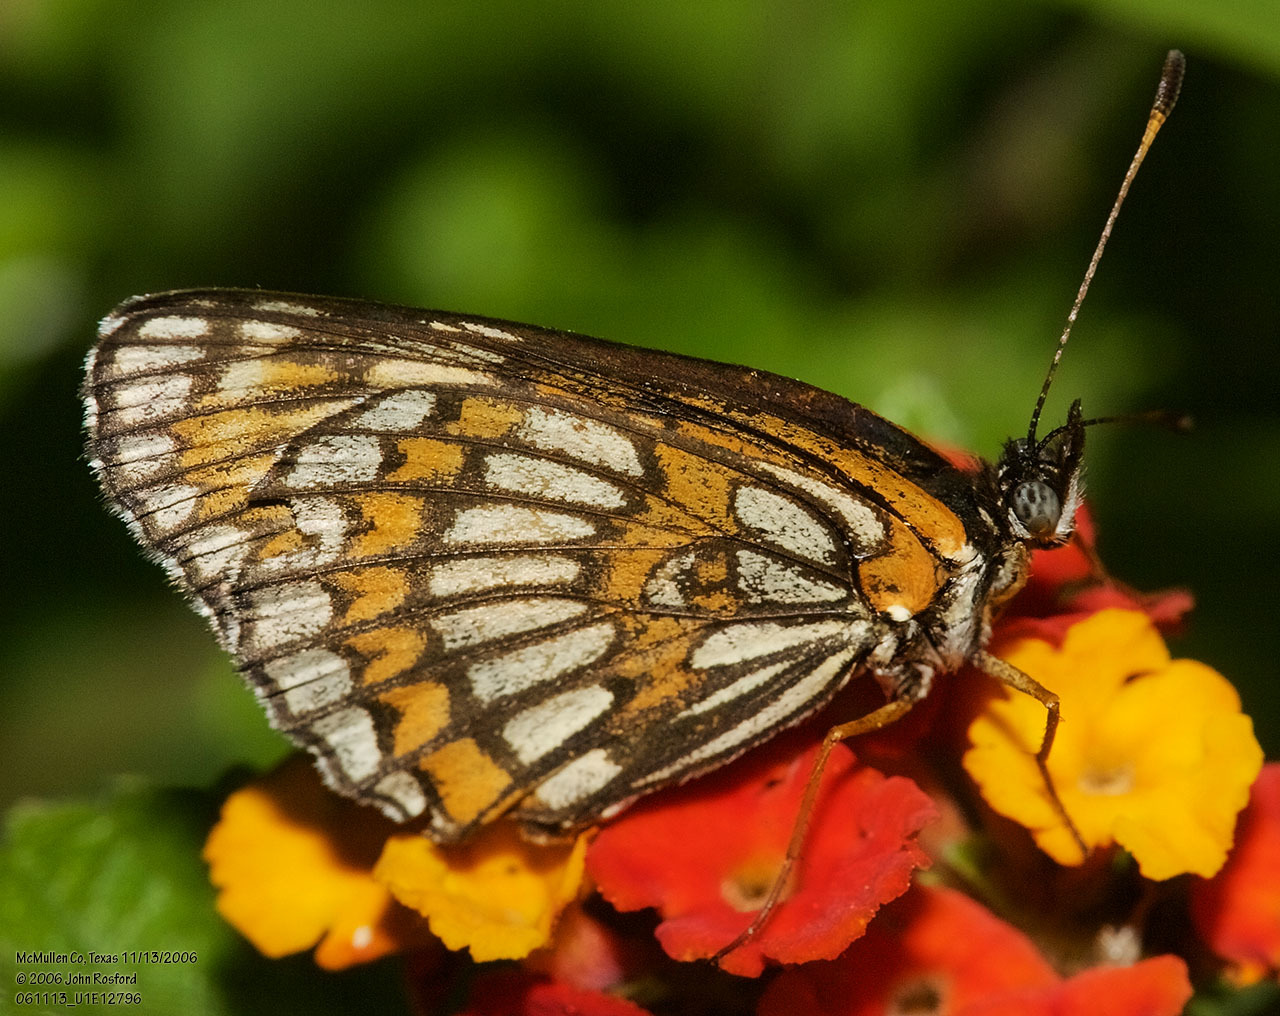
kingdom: Animalia
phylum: Arthropoda
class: Insecta
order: Lepidoptera
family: Nymphalidae
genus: Thessalia
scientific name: Thessalia theona
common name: Nymphalid moth
